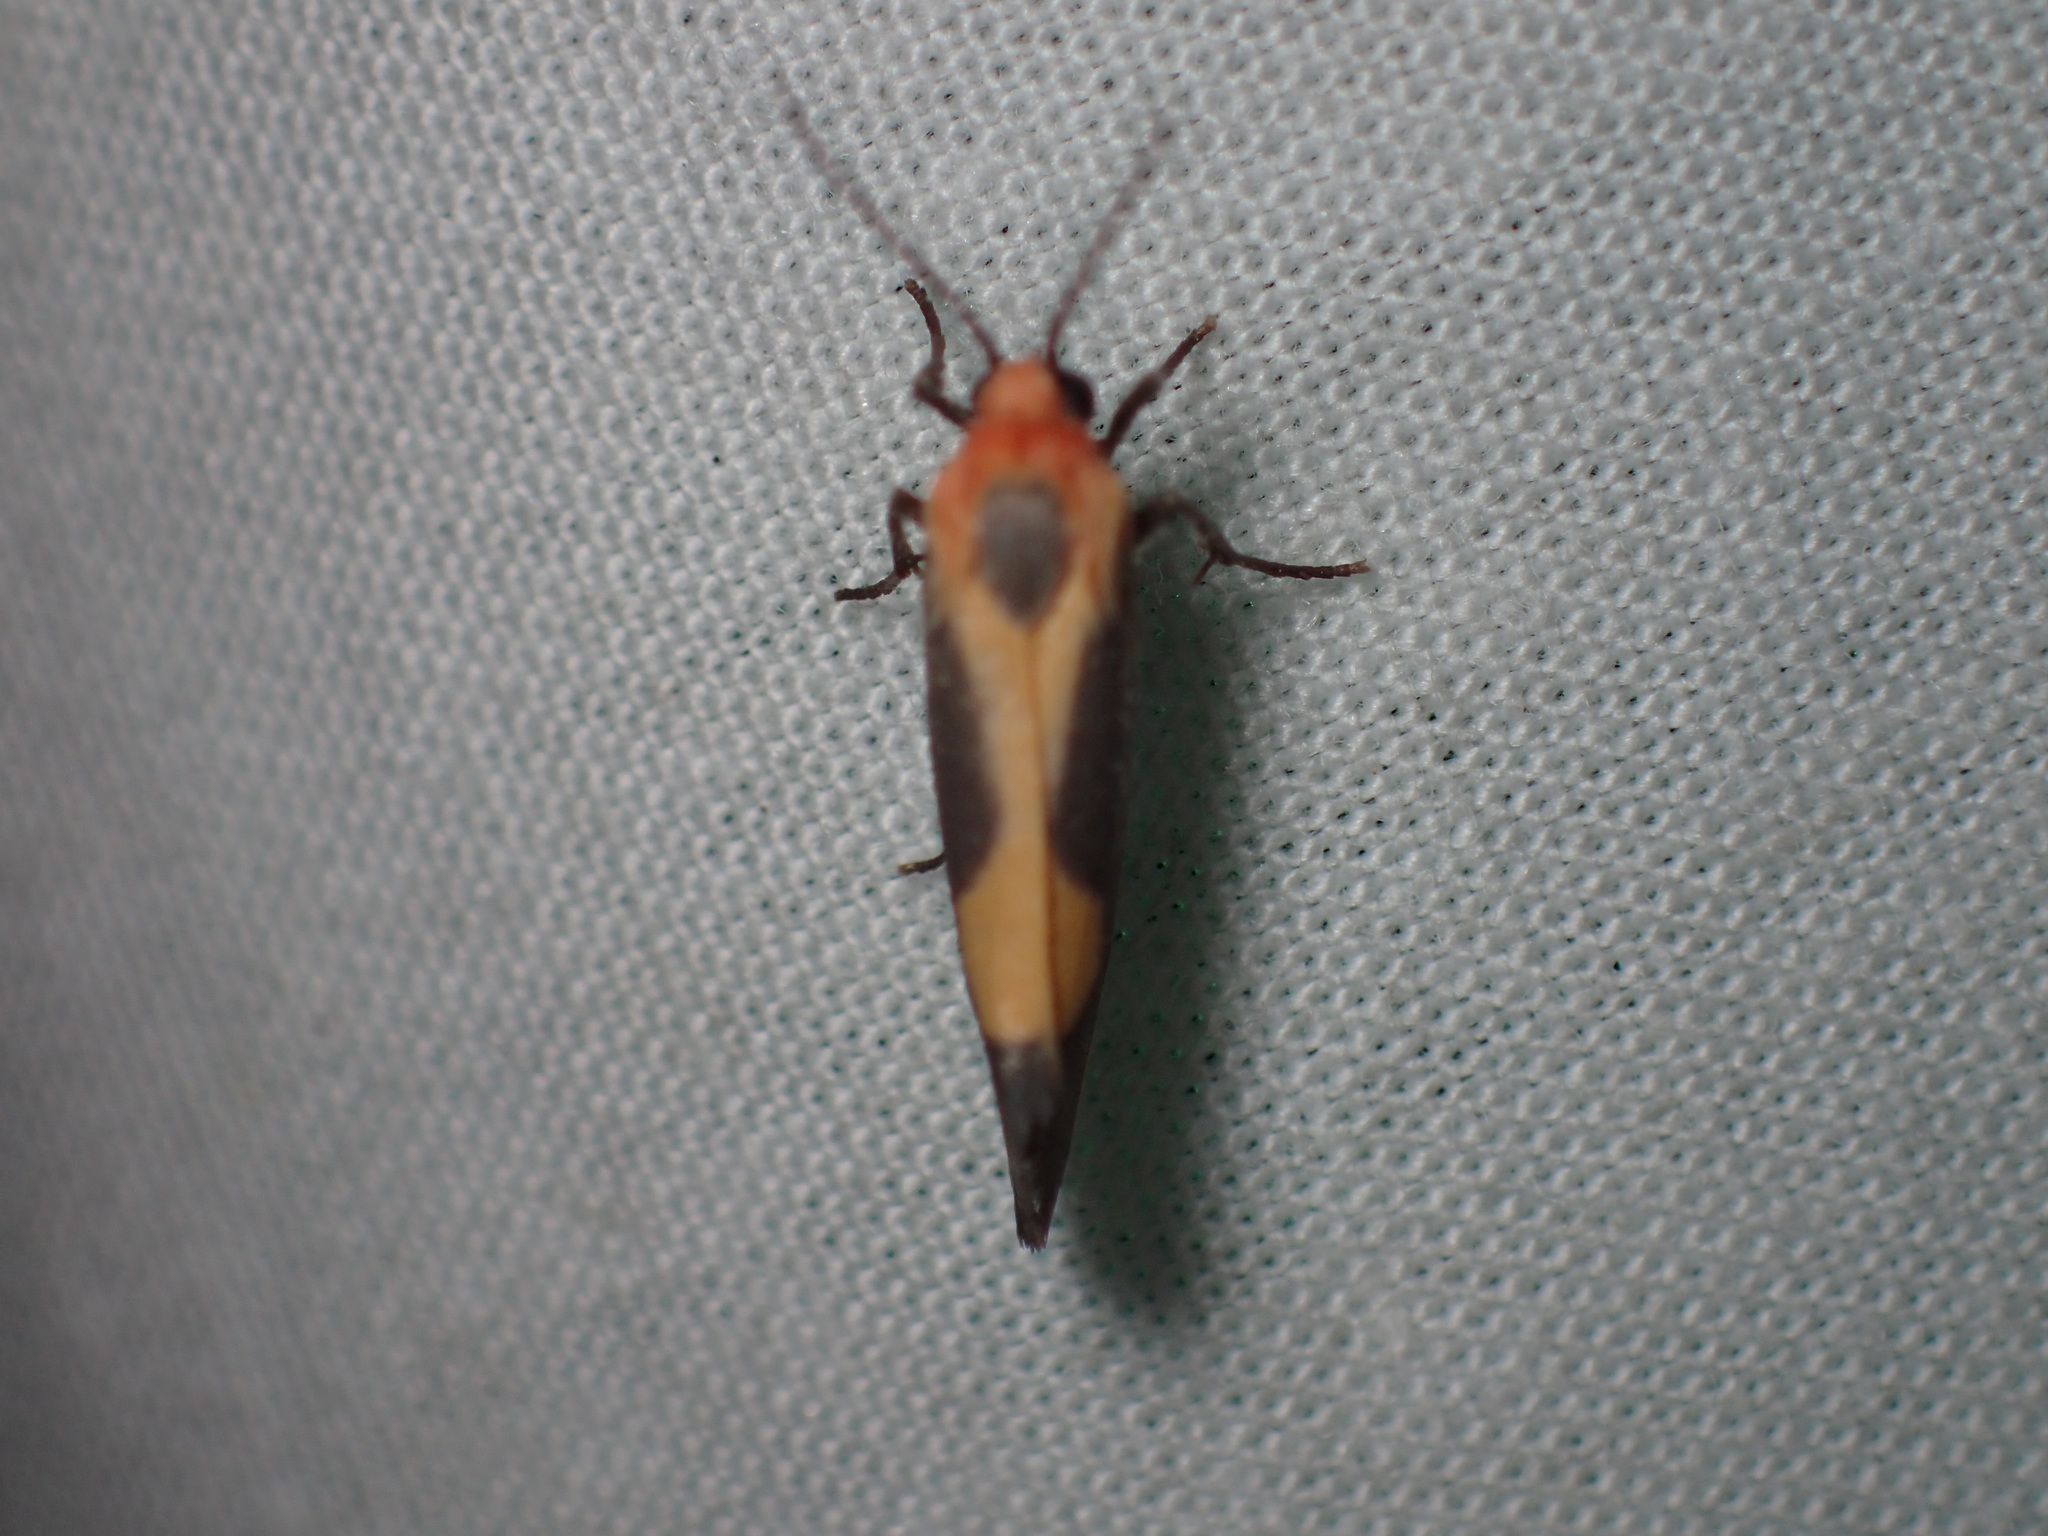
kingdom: Animalia
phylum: Arthropoda
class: Insecta
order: Lepidoptera
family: Erebidae
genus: Cisthene
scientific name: Cisthene plumbea
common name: Lead colored lichen moth
